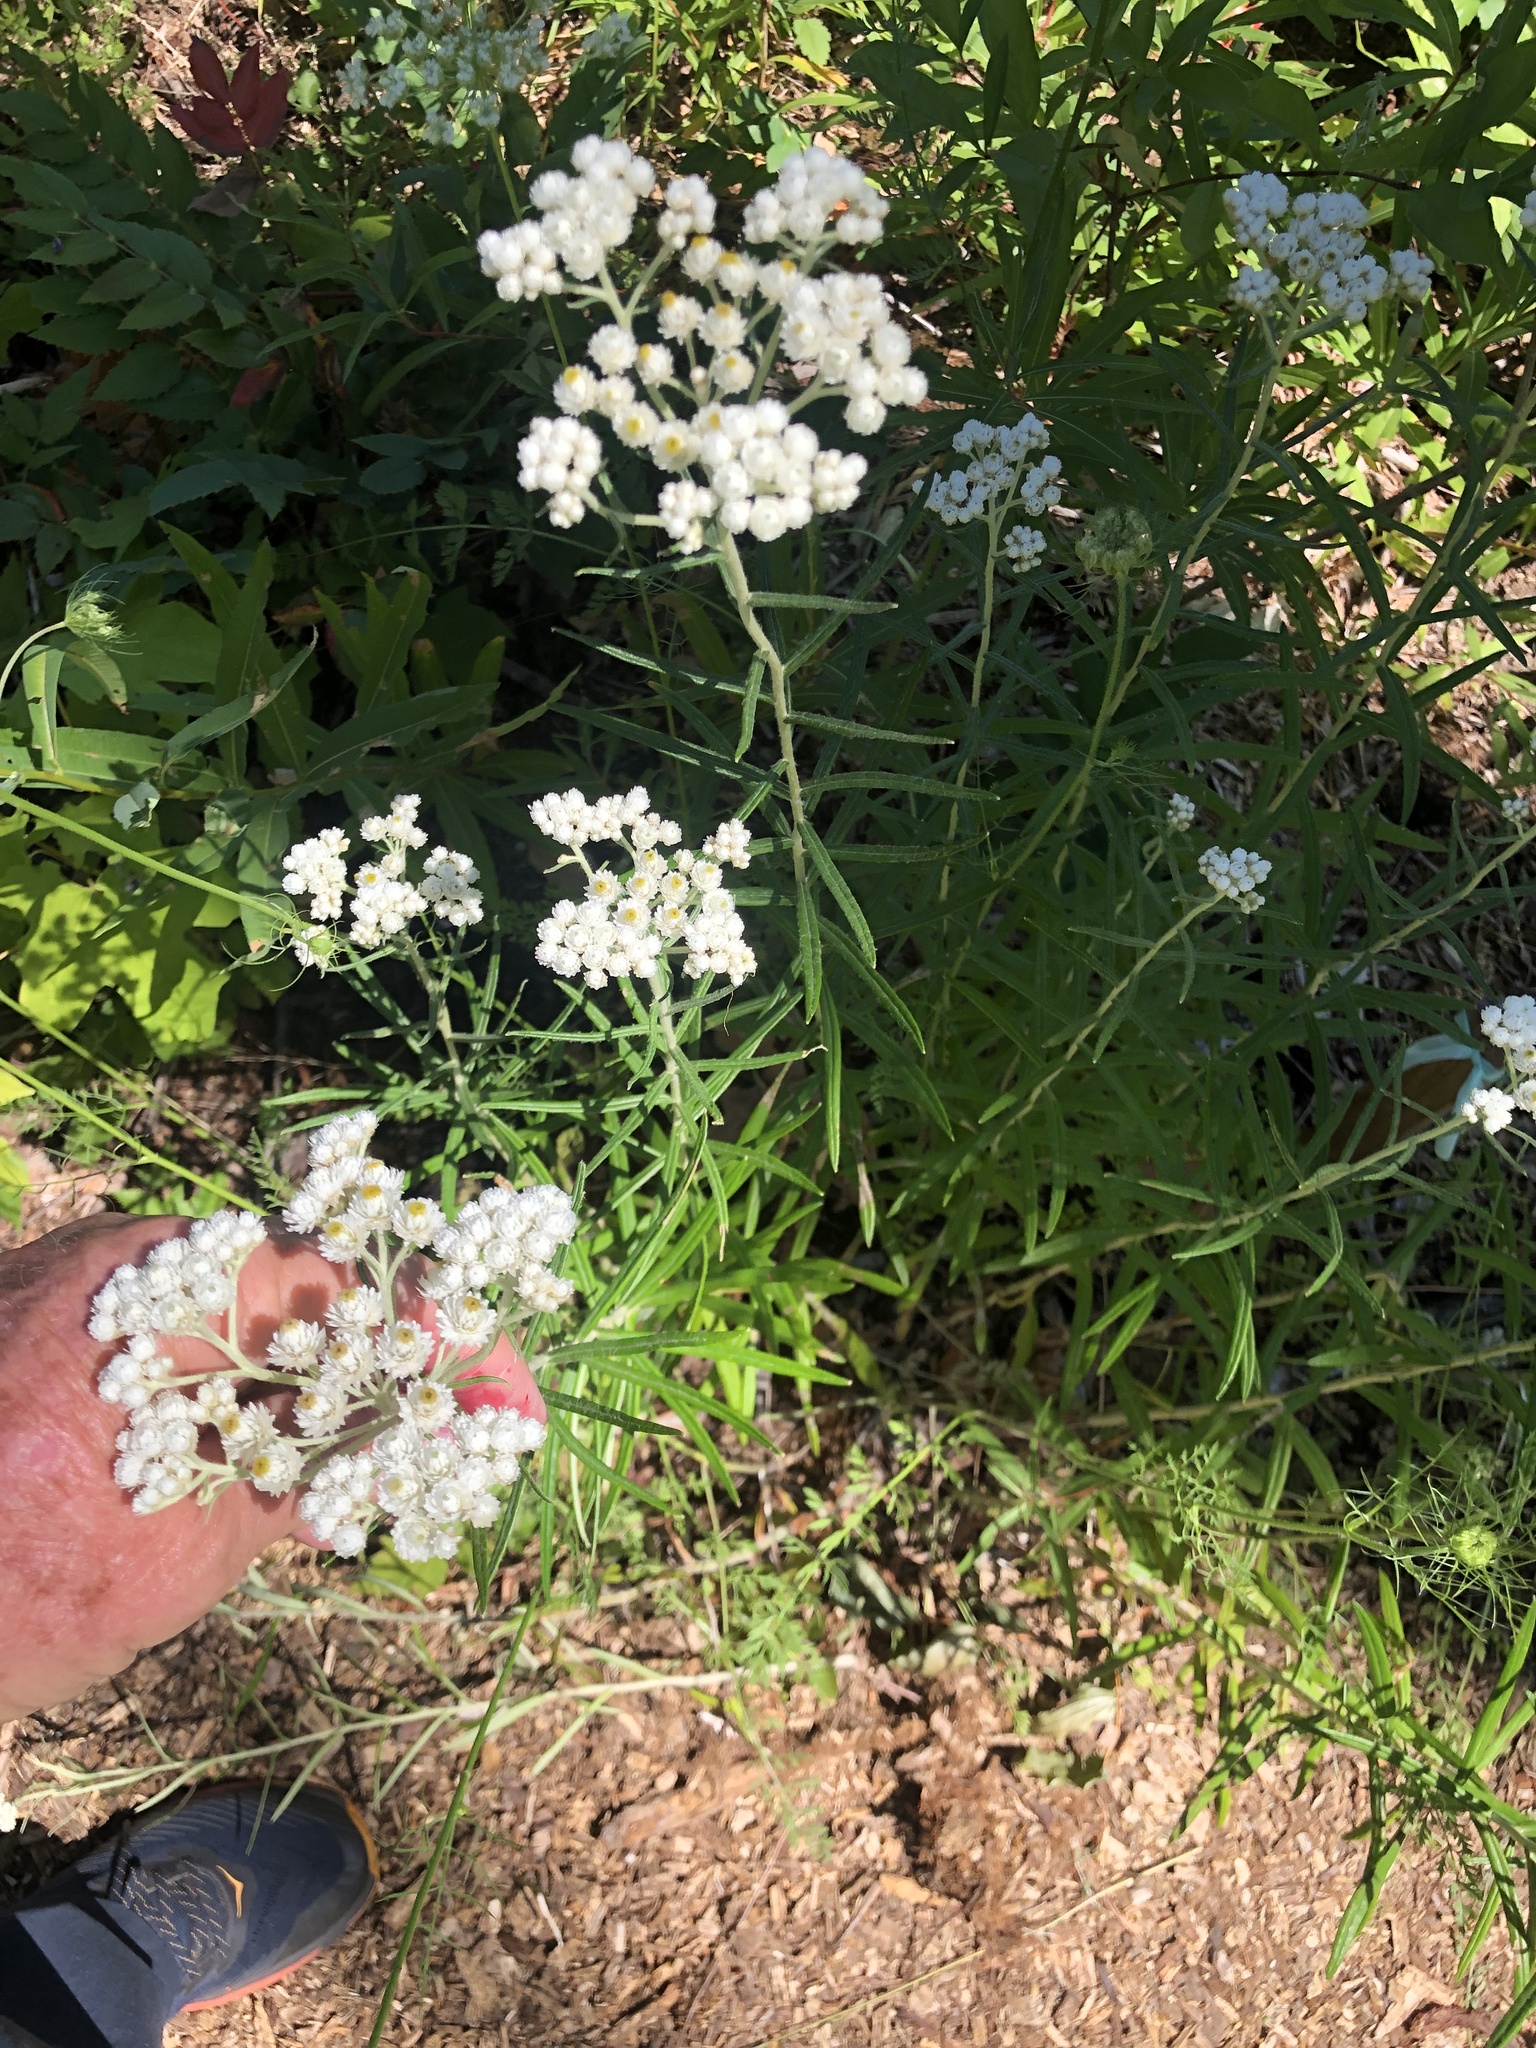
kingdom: Plantae
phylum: Tracheophyta
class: Magnoliopsida
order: Asterales
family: Asteraceae
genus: Anaphalis
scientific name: Anaphalis margaritacea
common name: Pearly everlasting
